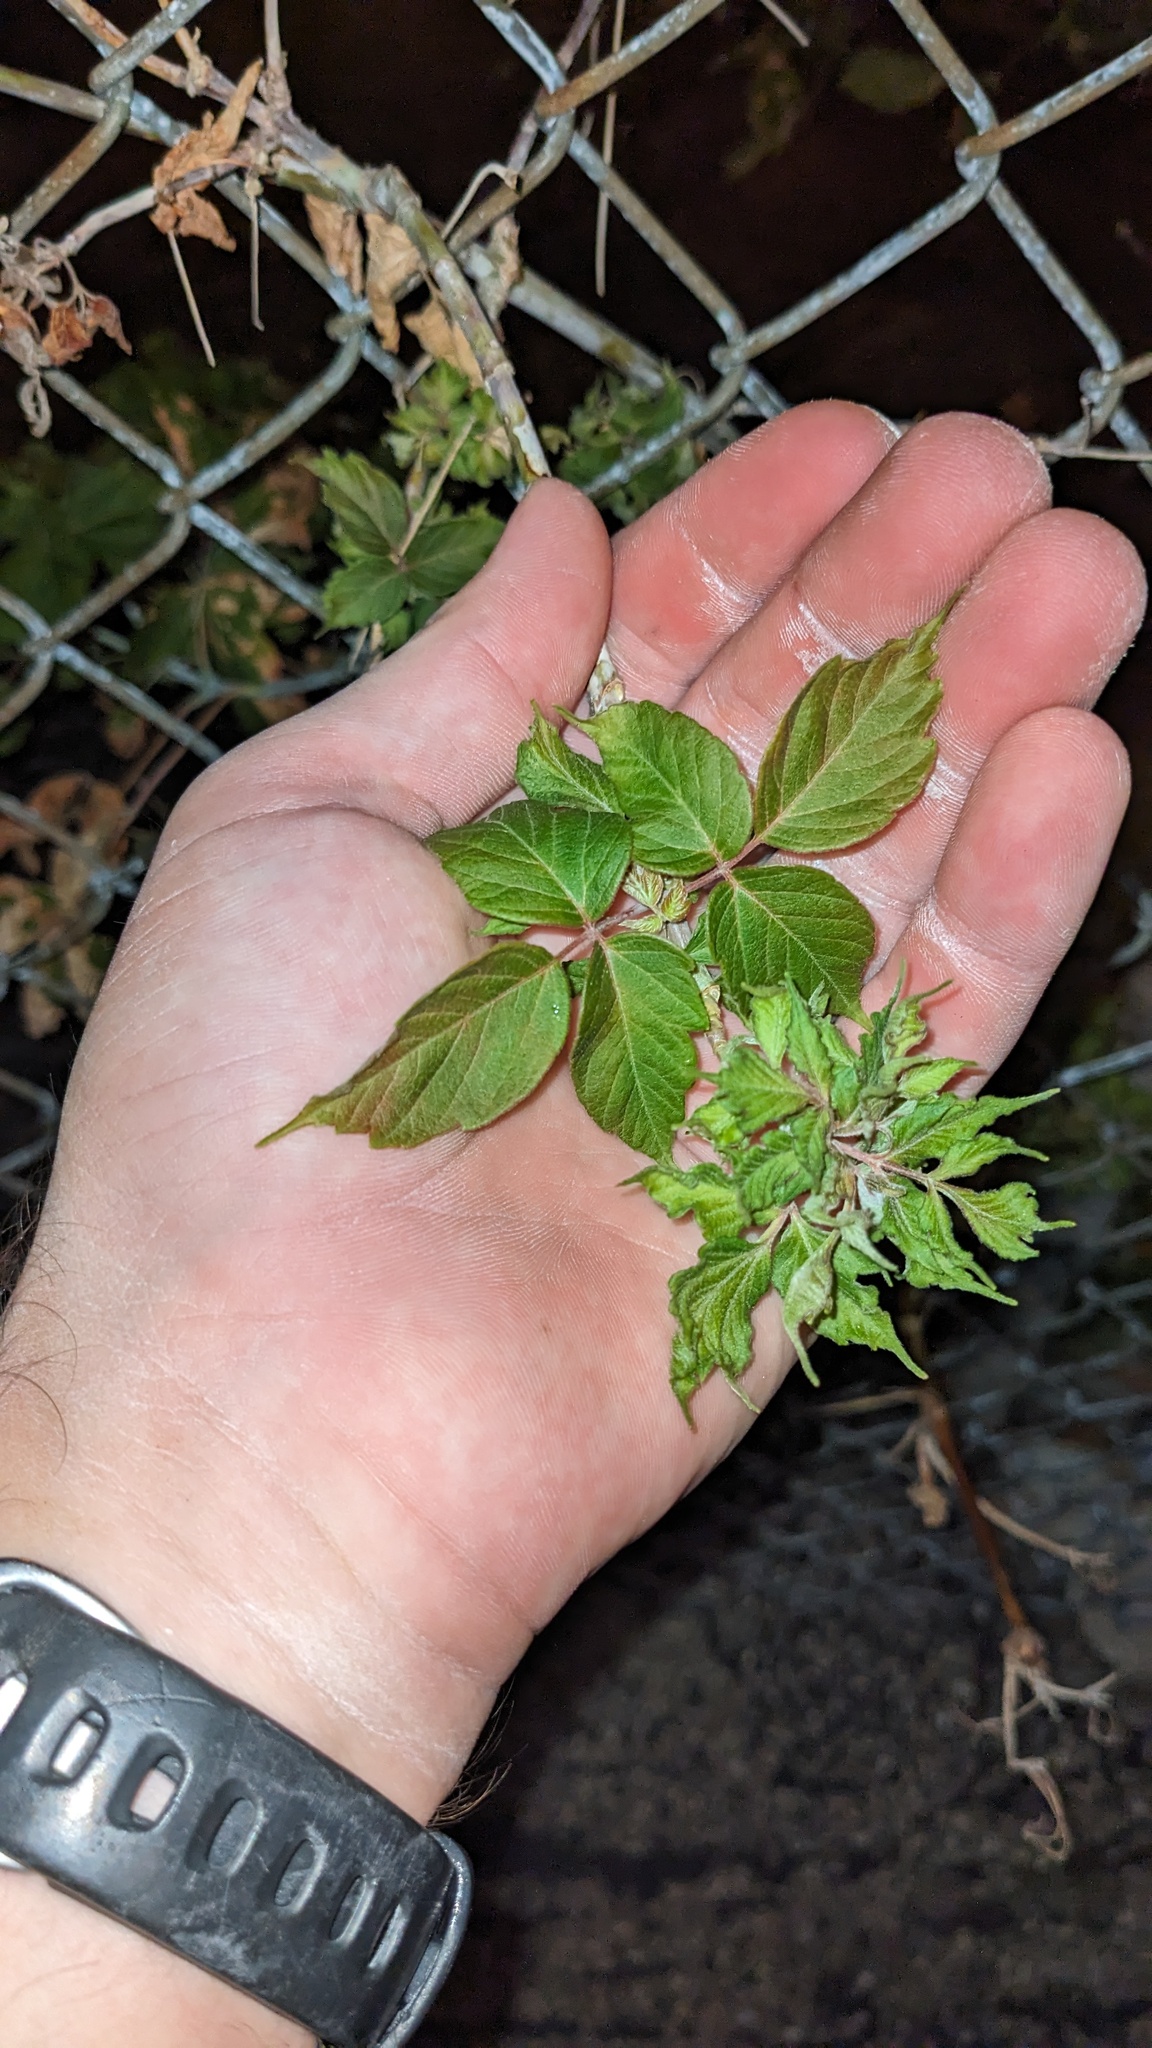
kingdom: Plantae
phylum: Tracheophyta
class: Magnoliopsida
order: Sapindales
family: Sapindaceae
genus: Acer
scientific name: Acer negundo
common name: Ashleaf maple
